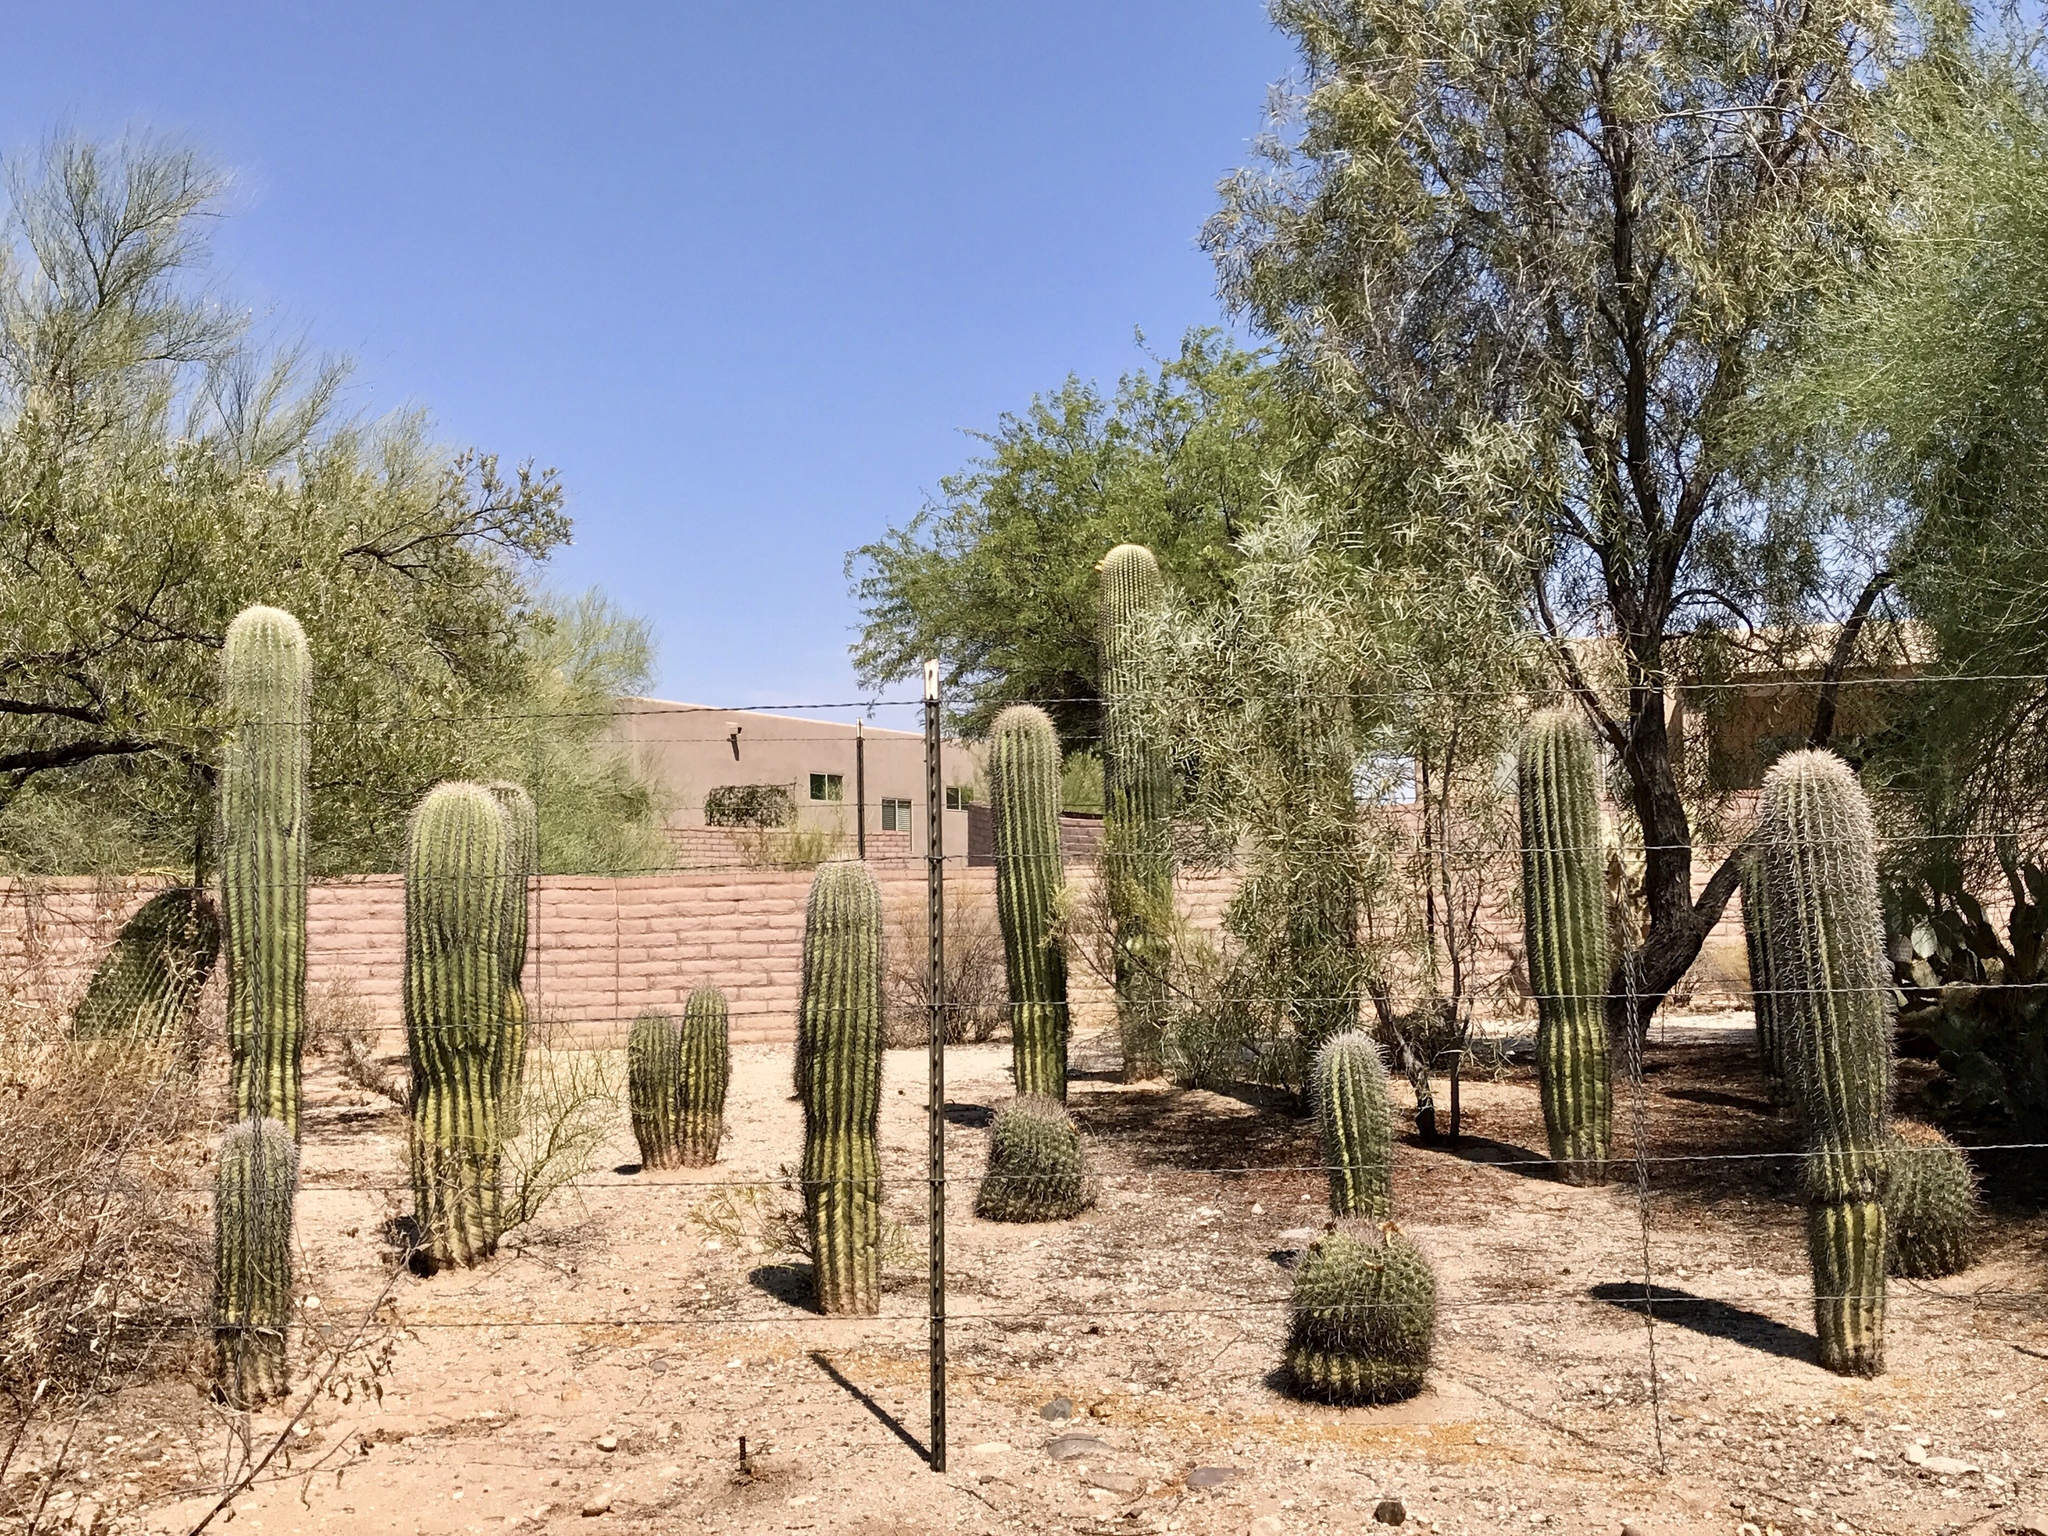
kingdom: Plantae
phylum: Tracheophyta
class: Magnoliopsida
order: Caryophyllales
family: Cactaceae
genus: Carnegiea
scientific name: Carnegiea gigantea
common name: Saguaro
